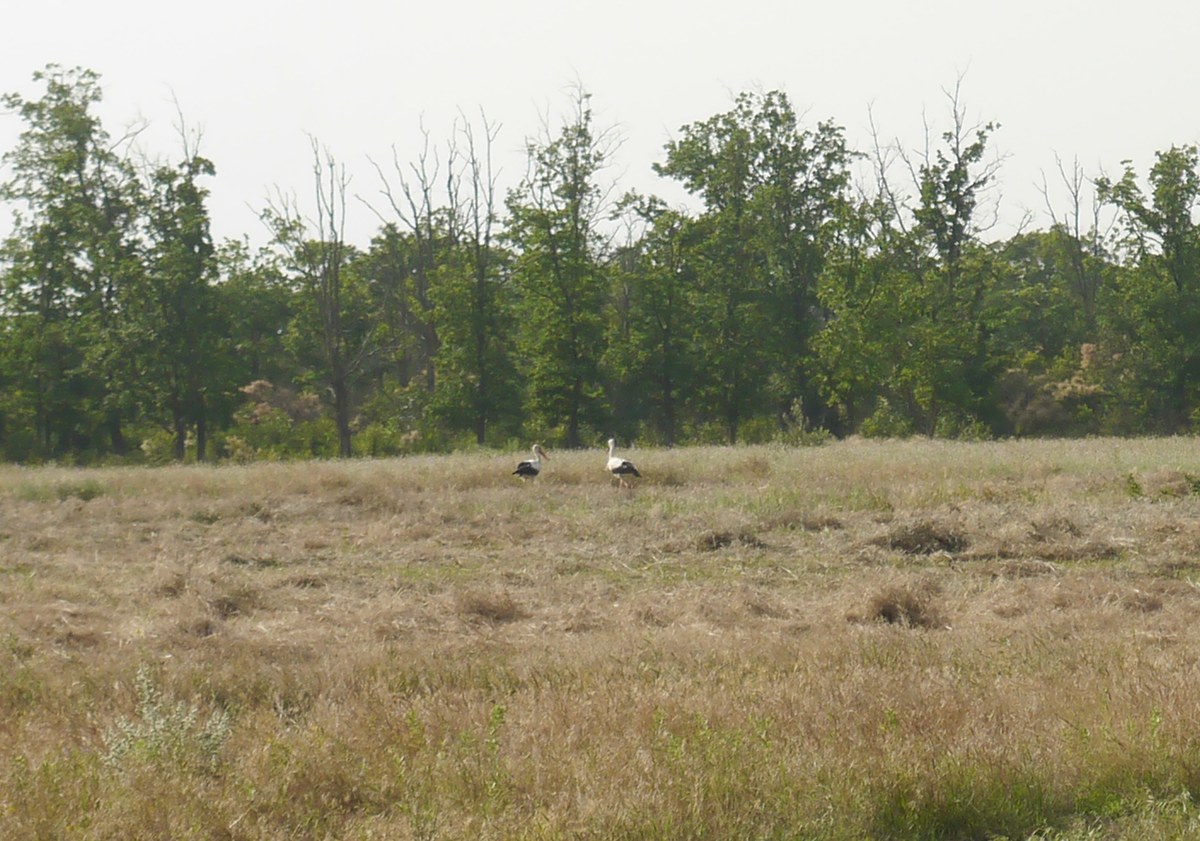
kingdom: Animalia
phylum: Chordata
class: Aves
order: Ciconiiformes
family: Ciconiidae
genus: Ciconia
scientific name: Ciconia ciconia
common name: White stork
